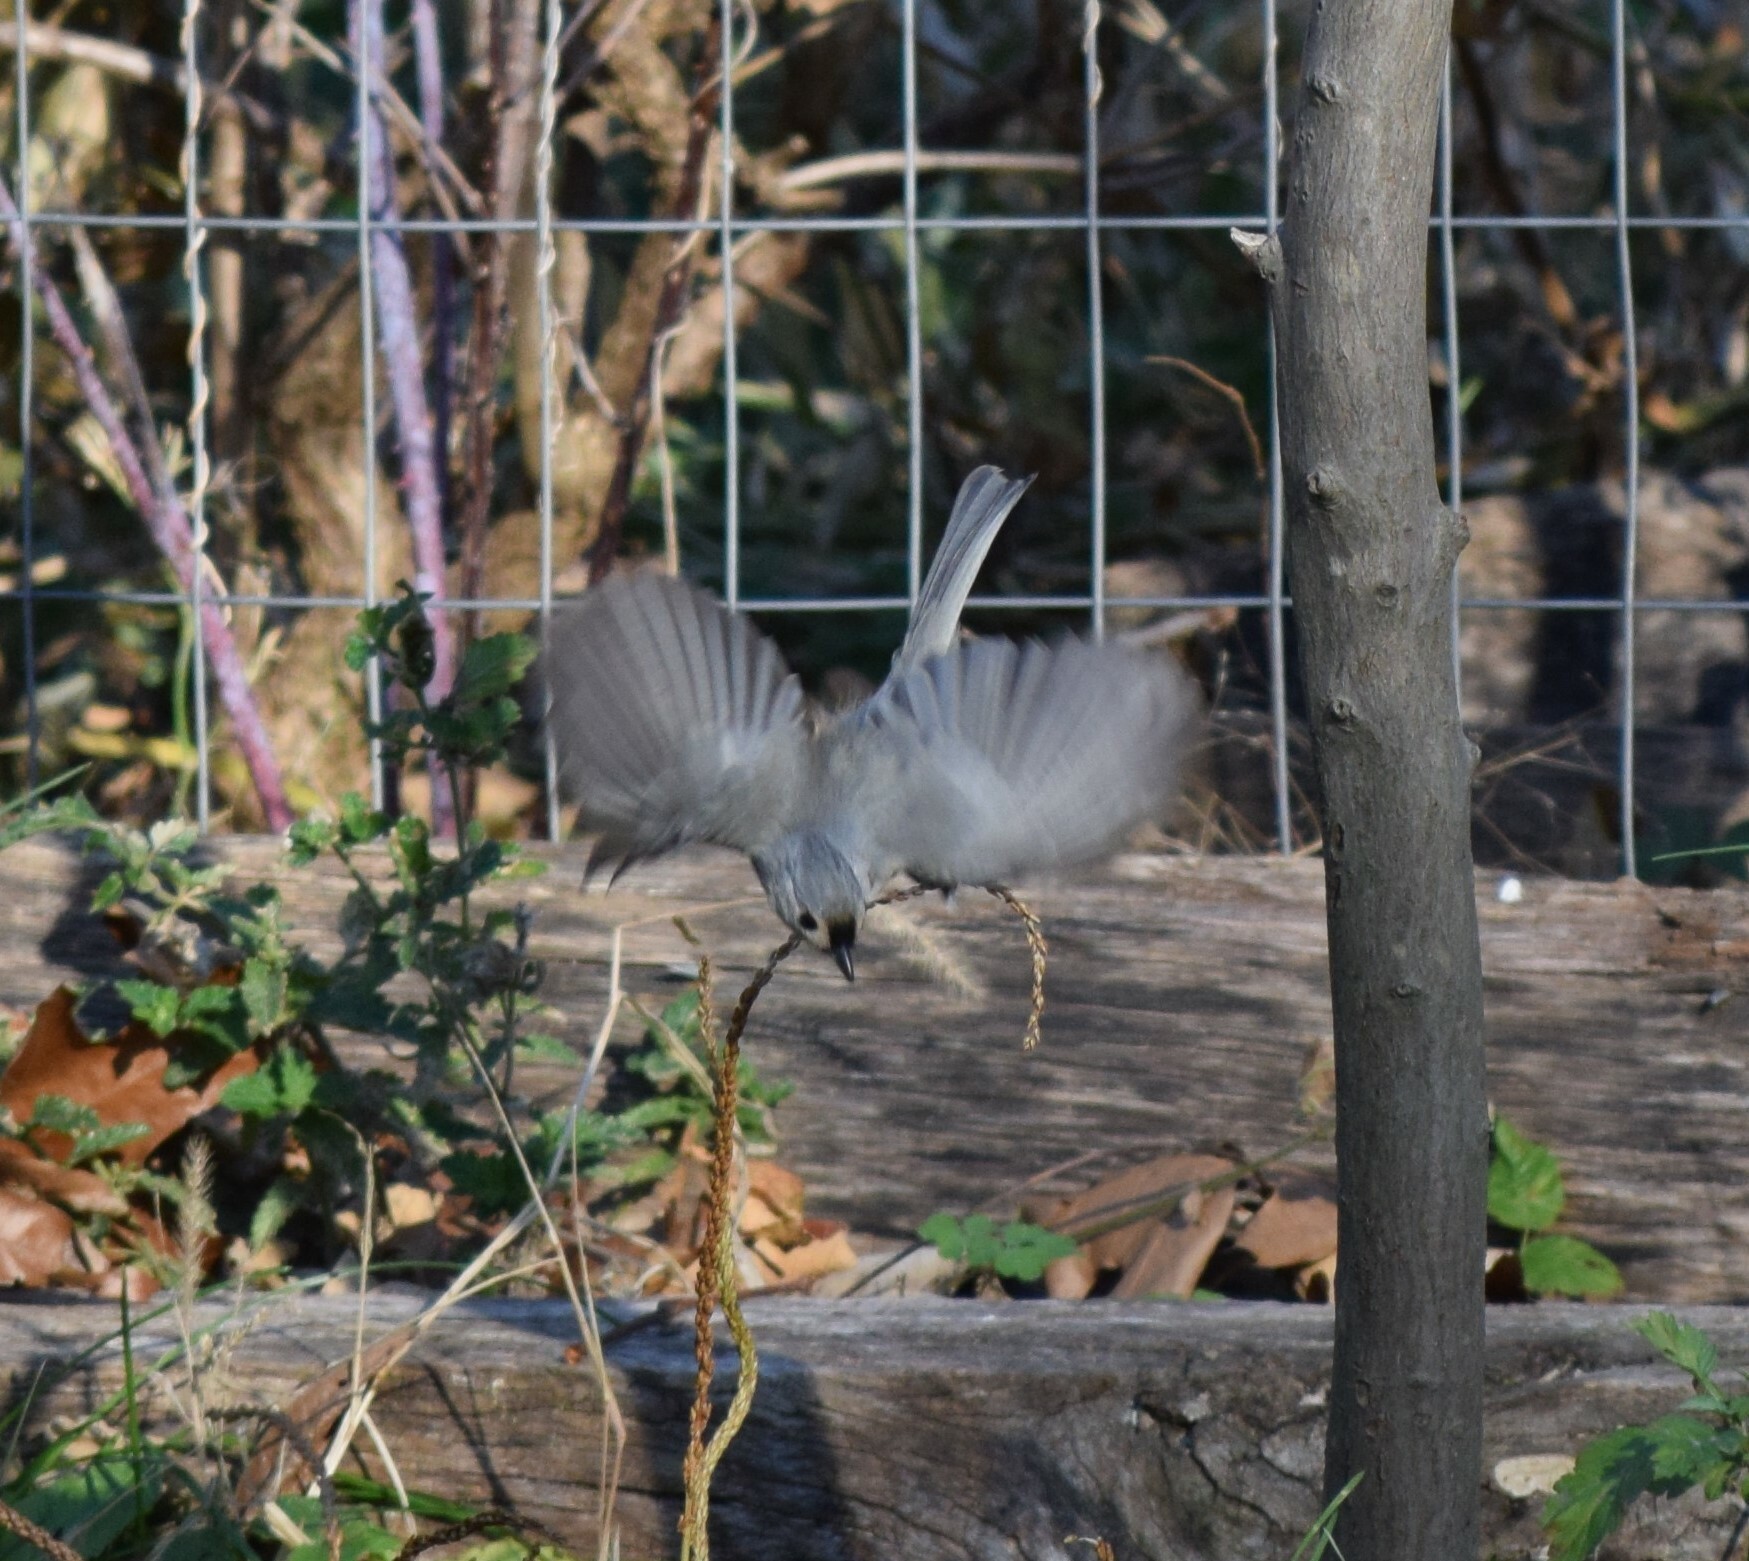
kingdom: Animalia
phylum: Chordata
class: Aves
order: Passeriformes
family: Paridae
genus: Baeolophus
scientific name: Baeolophus bicolor
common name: Tufted titmouse
